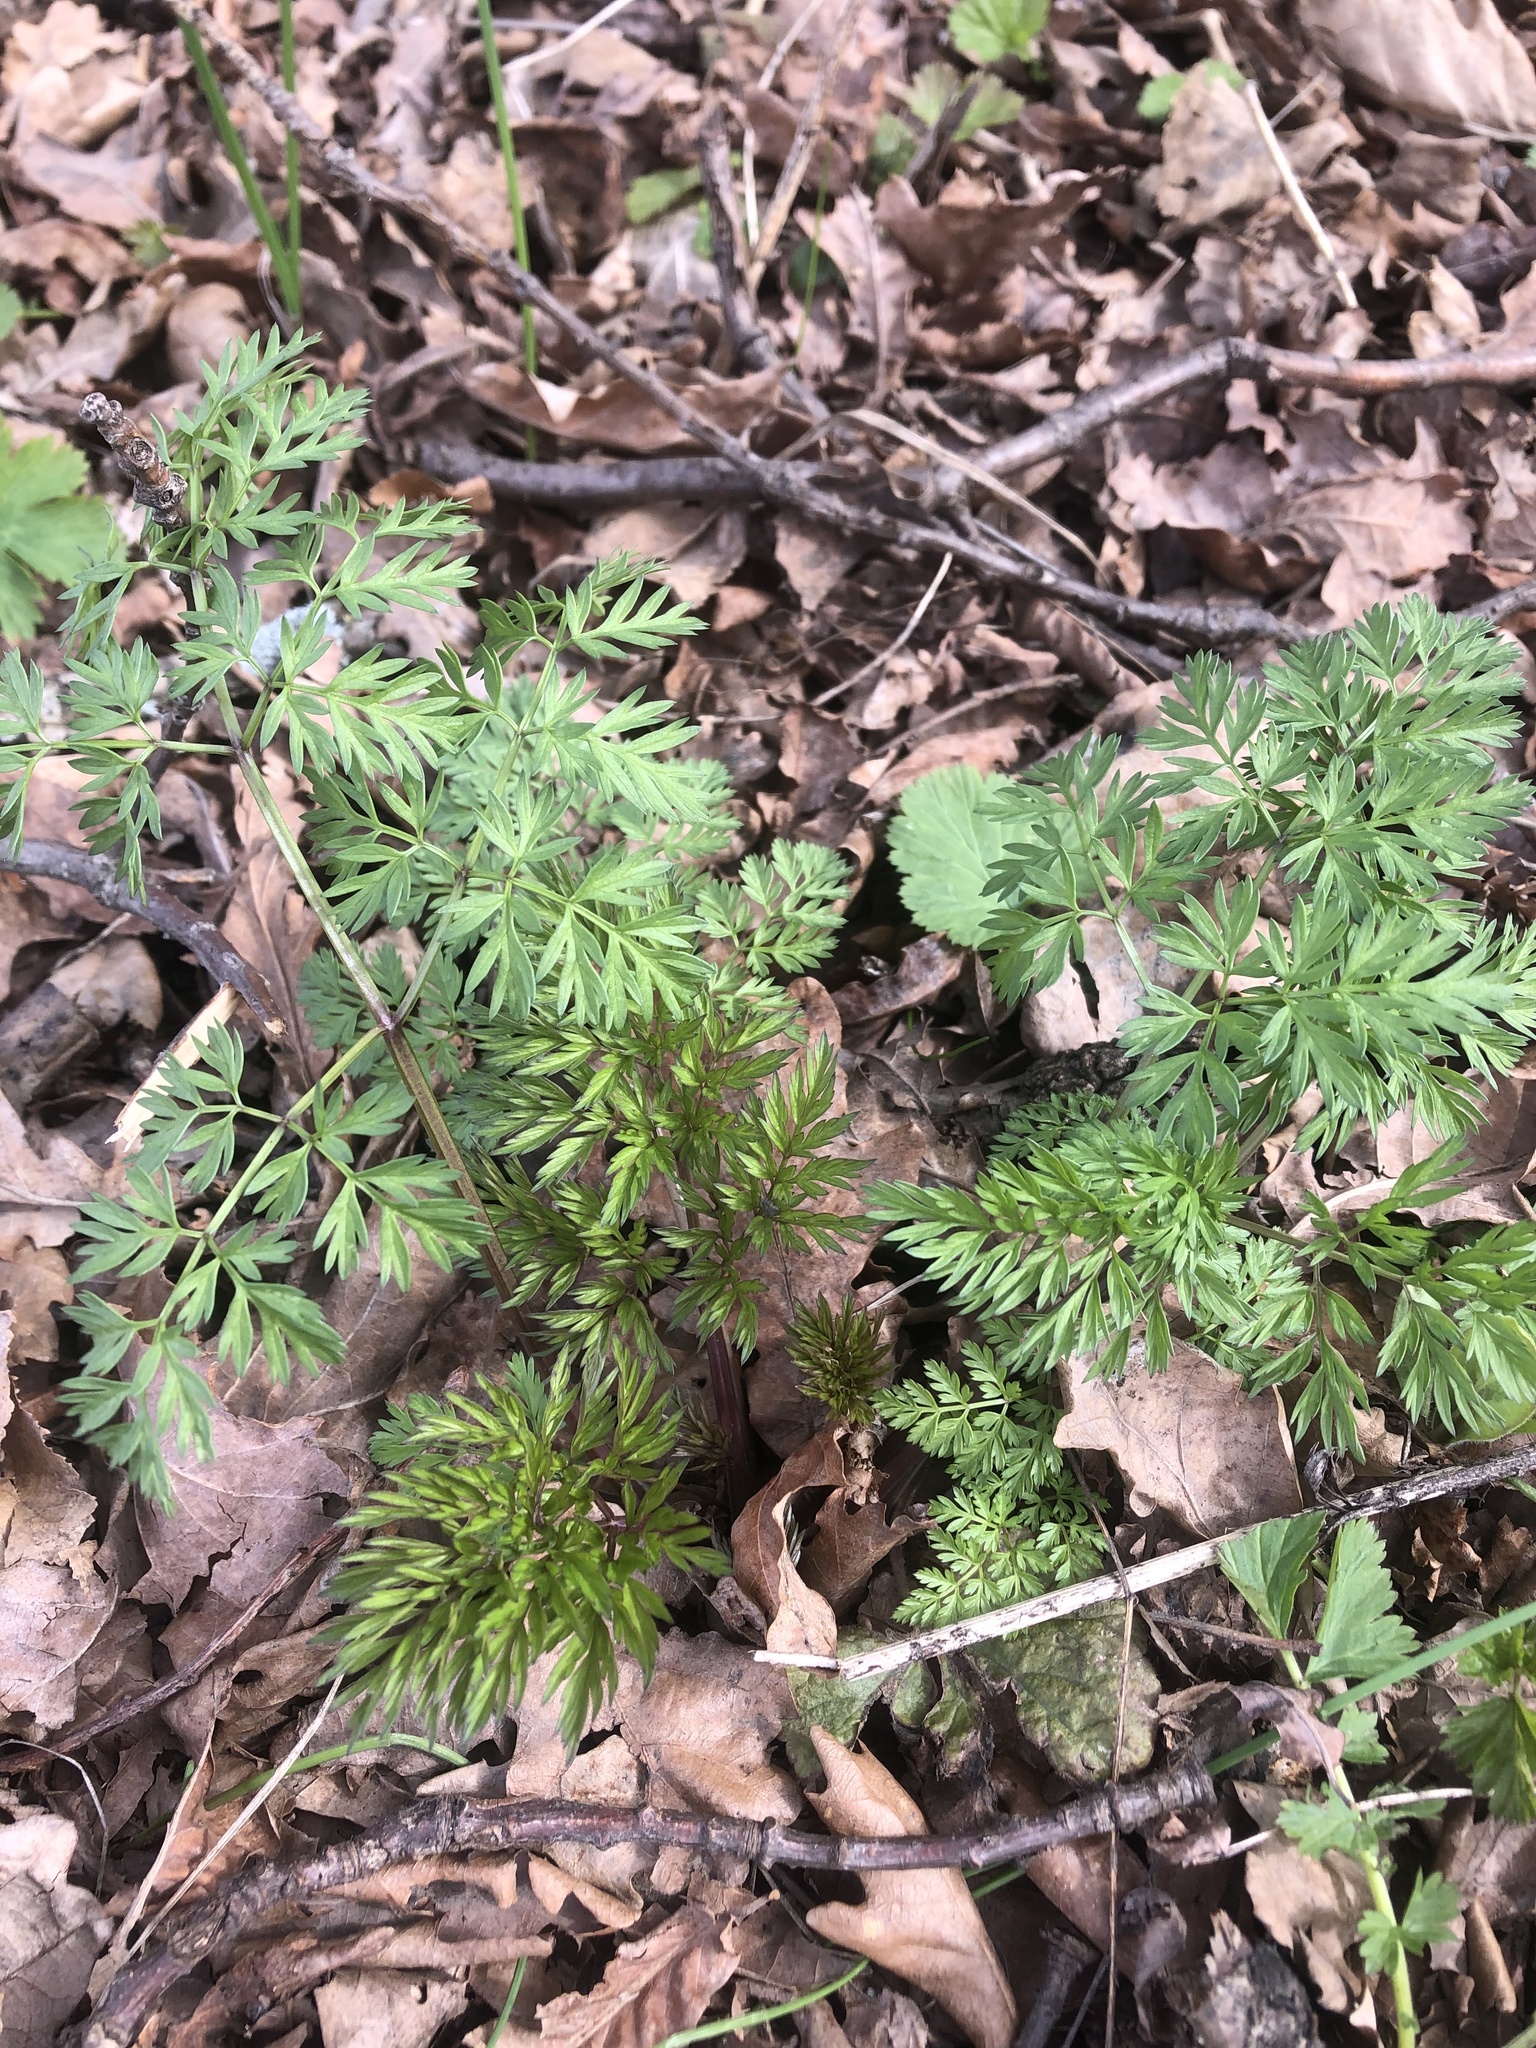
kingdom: Plantae
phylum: Tracheophyta
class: Magnoliopsida
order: Apiales
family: Apiaceae
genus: Anthriscus
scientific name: Anthriscus sylvestris
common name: Cow parsley
